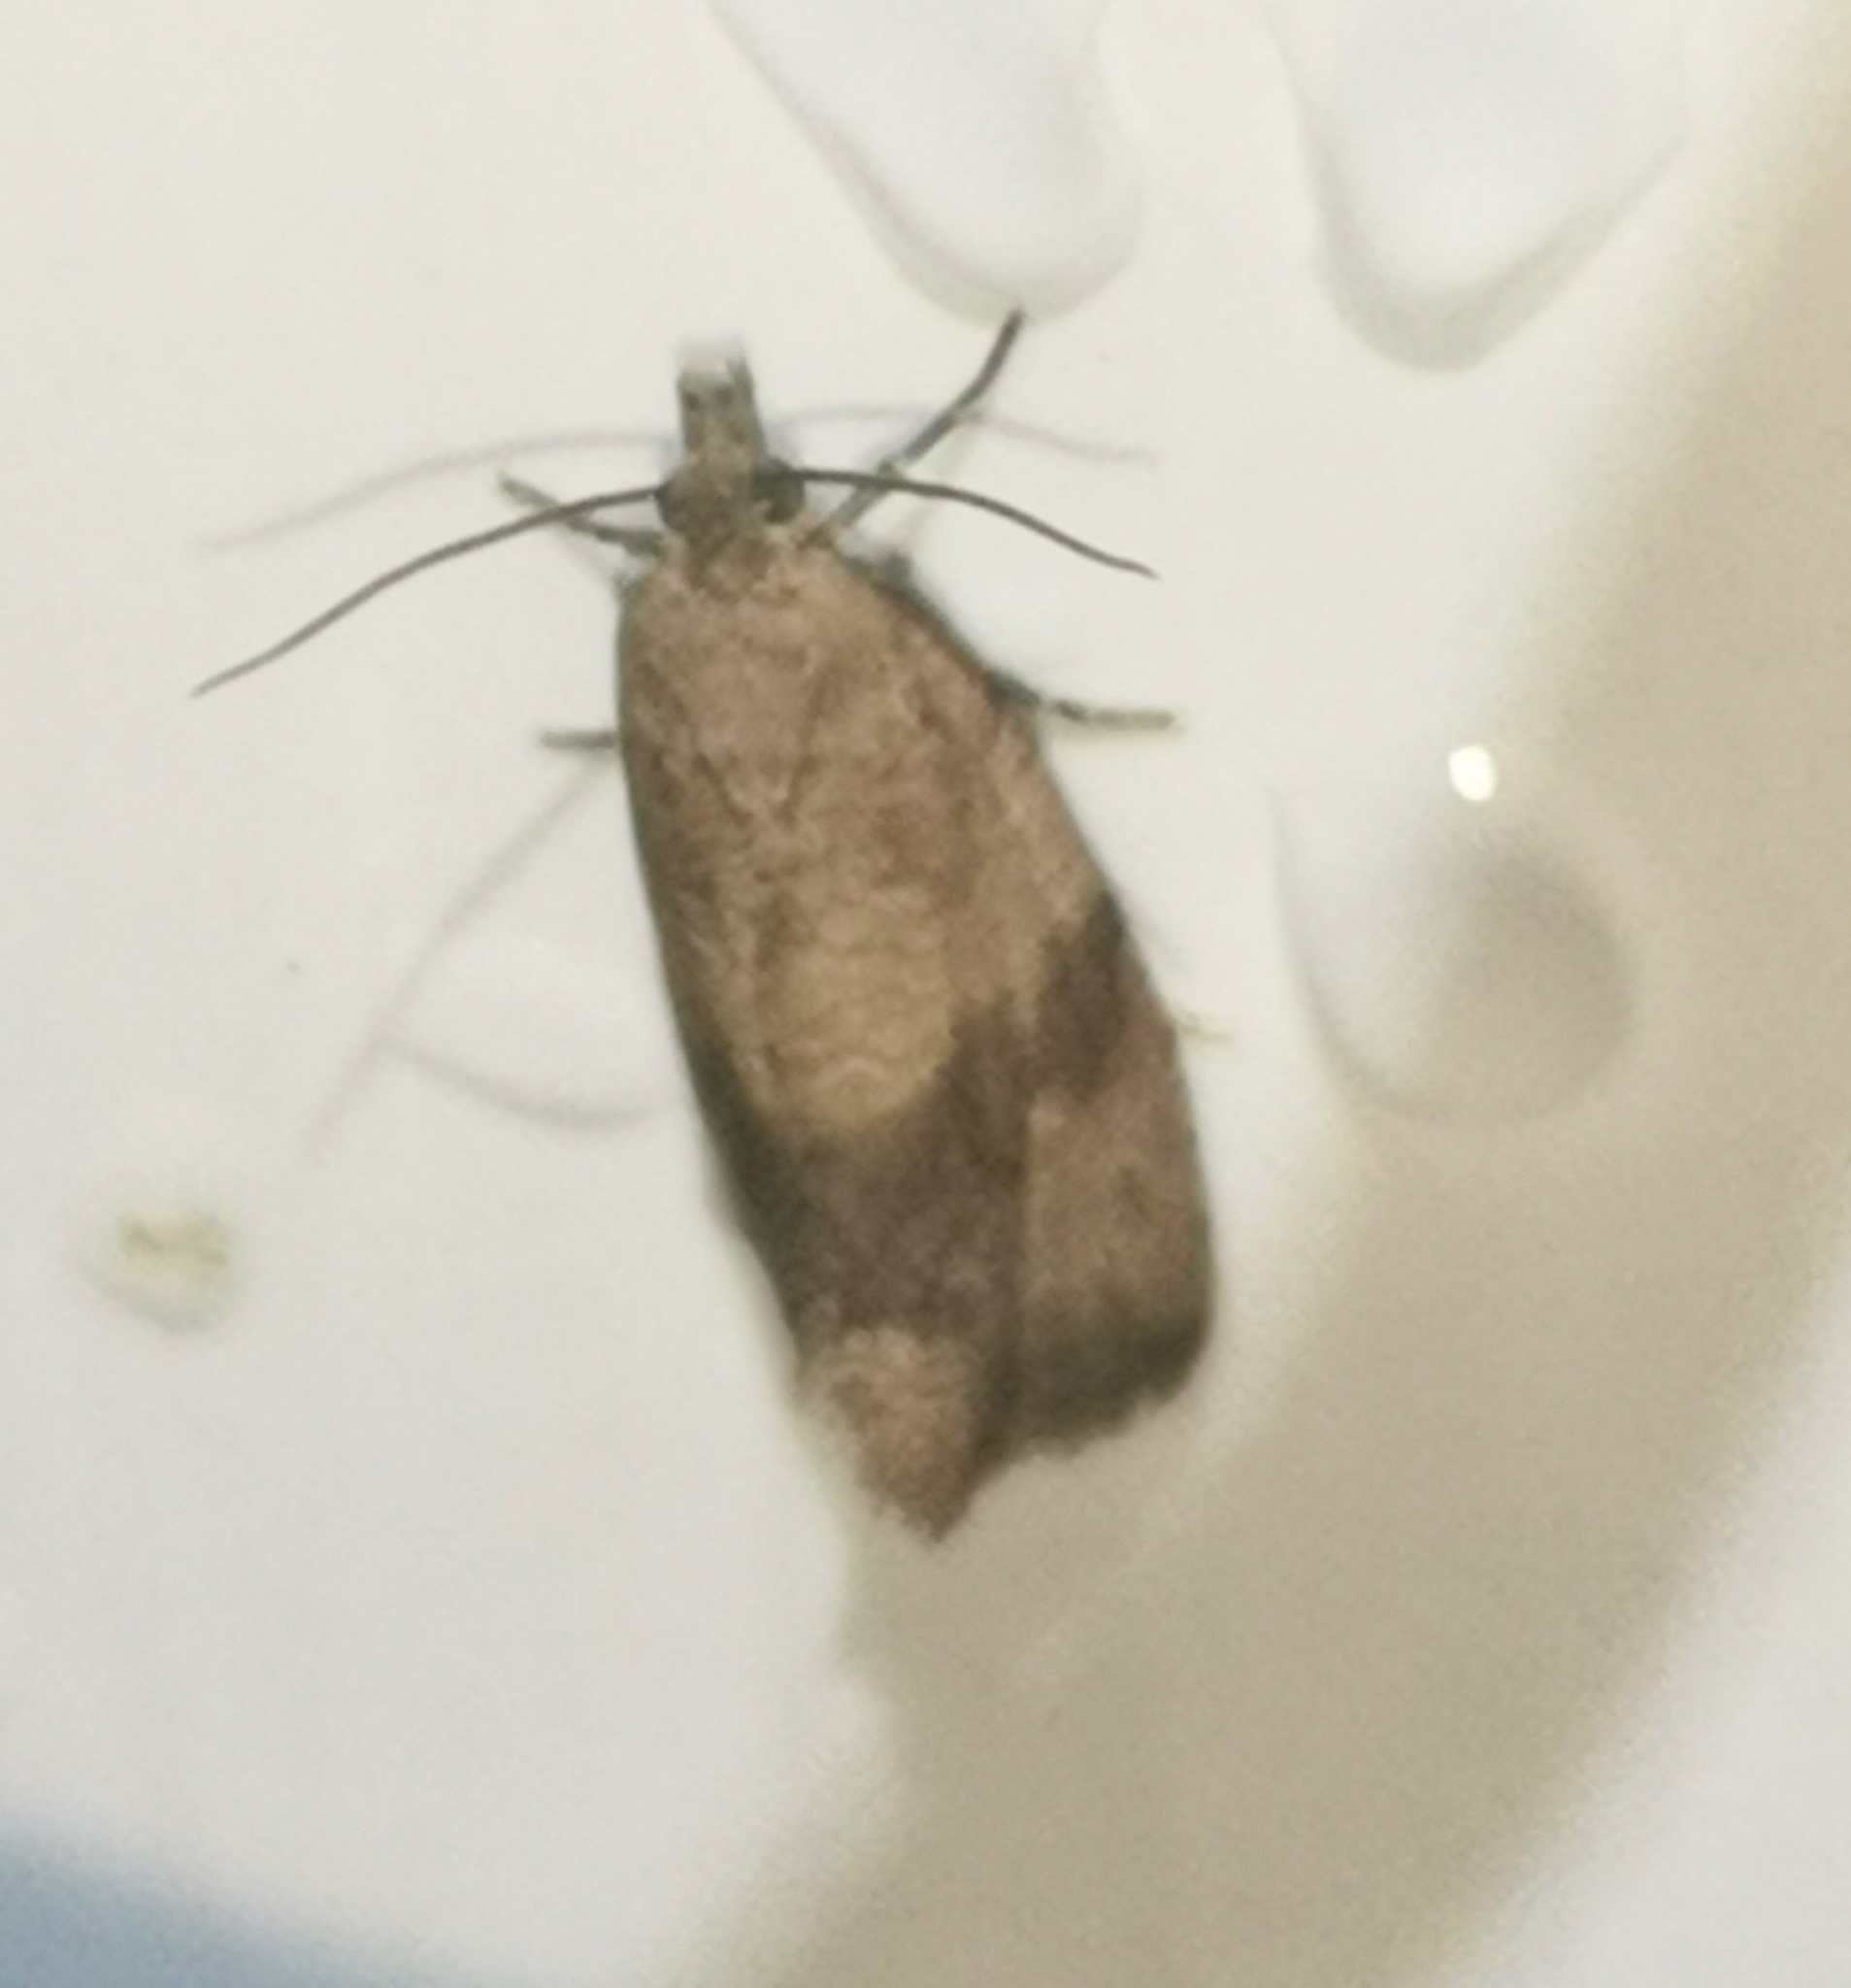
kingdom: Animalia
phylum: Arthropoda
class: Insecta
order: Lepidoptera
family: Tortricidae
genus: Celypha
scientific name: Celypha striana
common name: Barred marble
